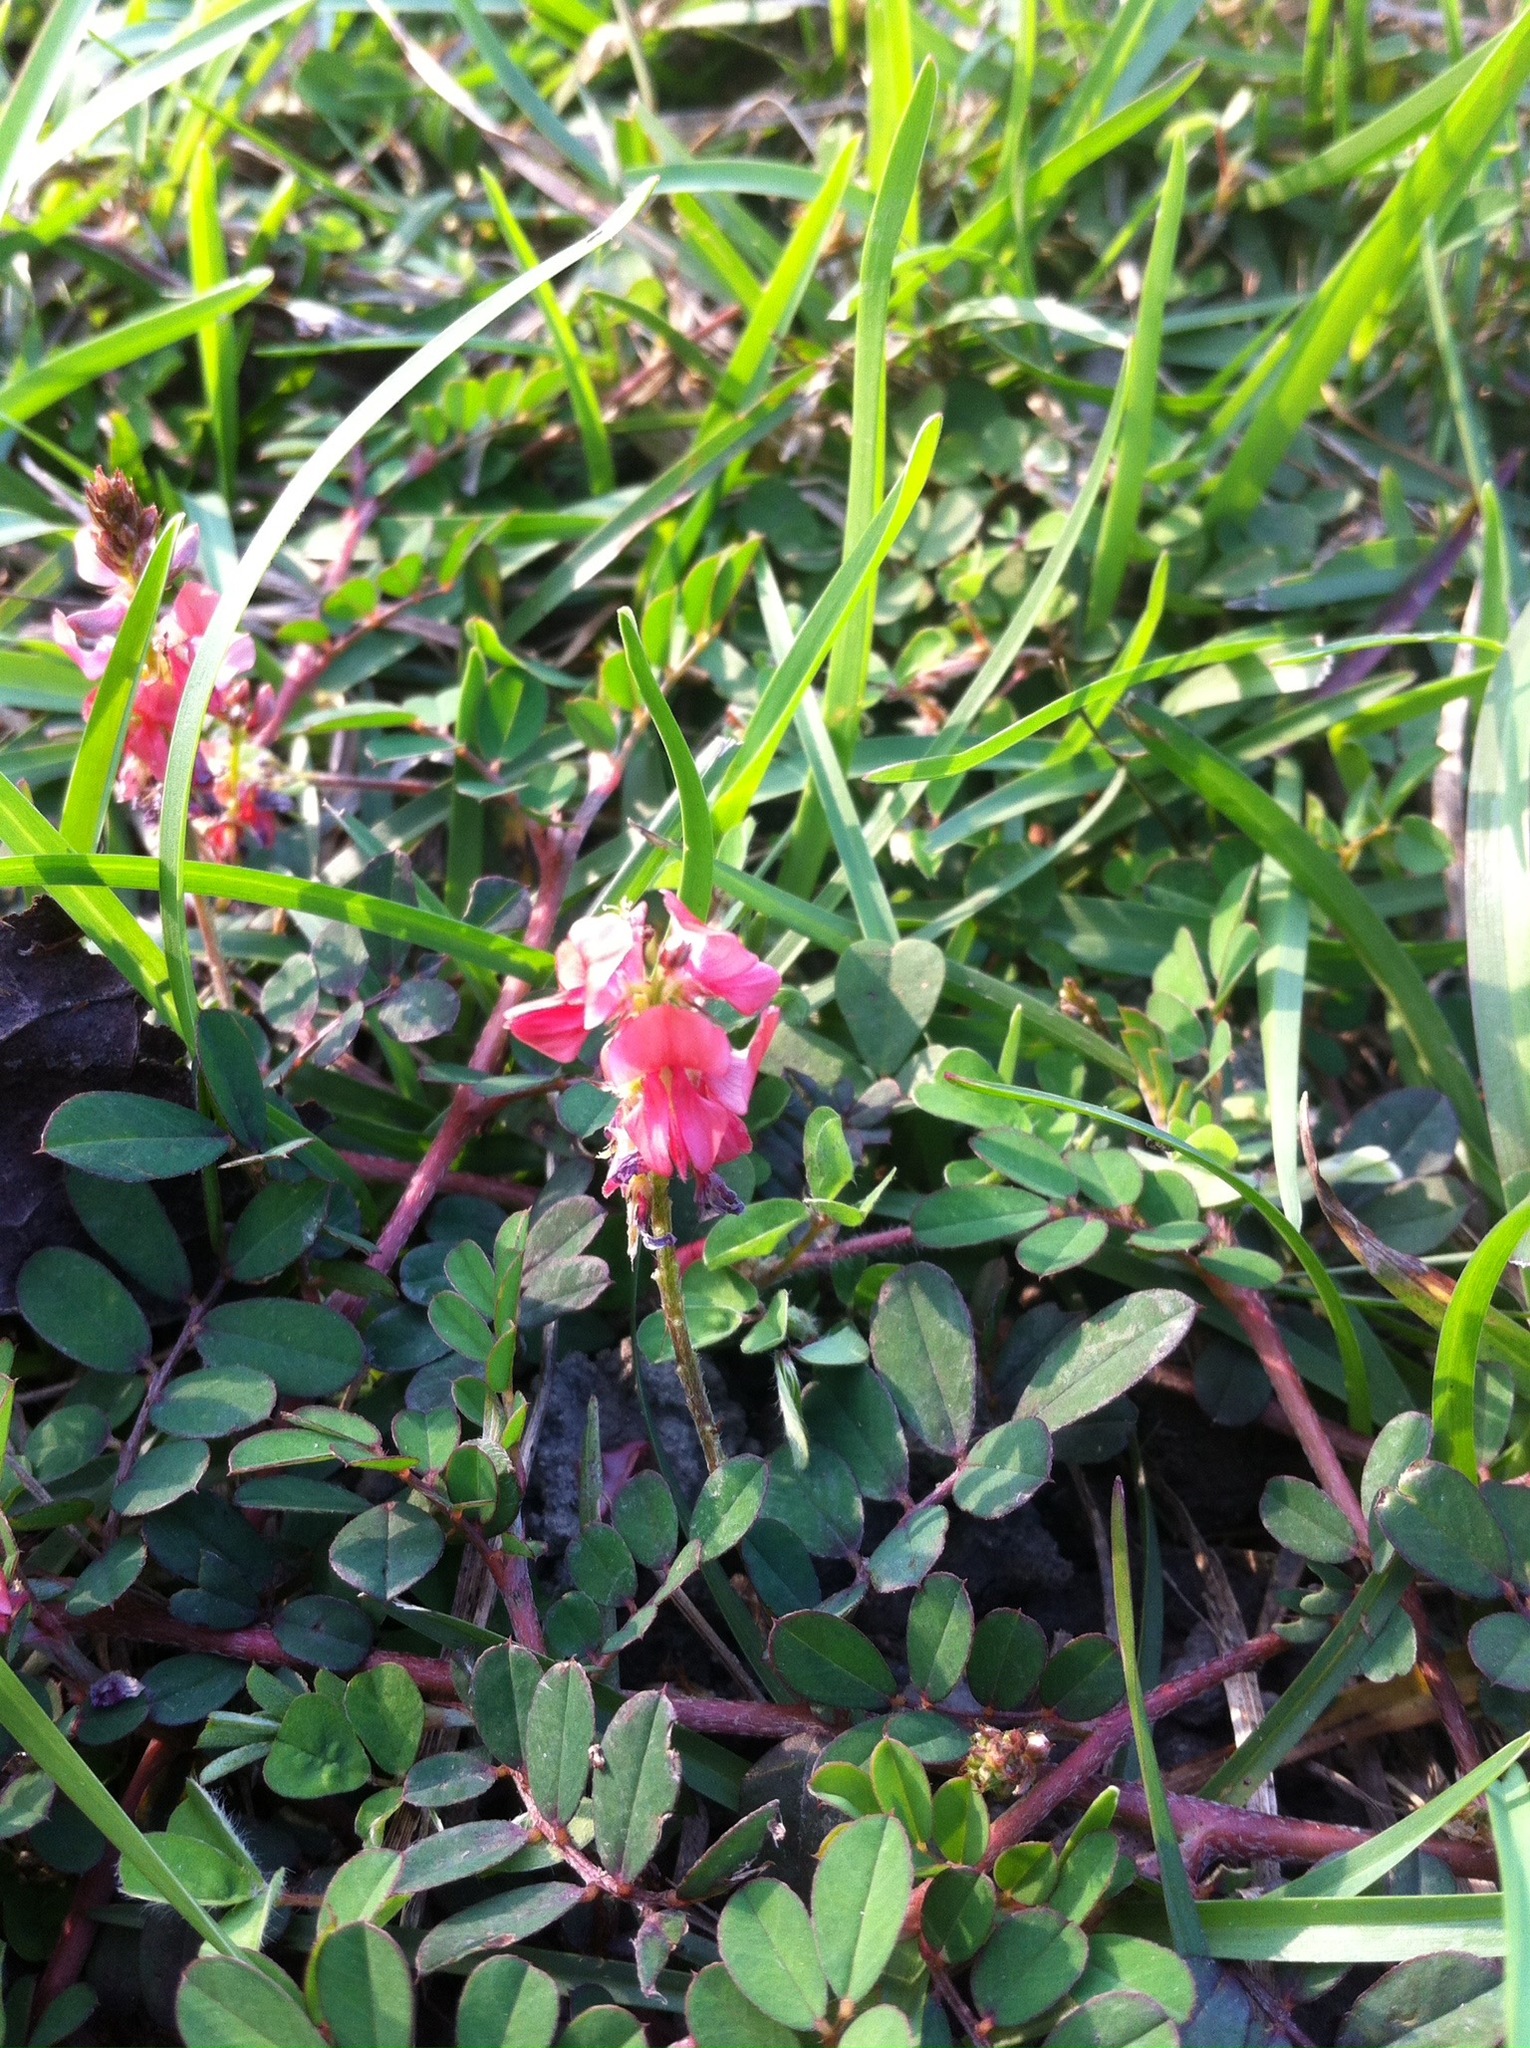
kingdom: Plantae
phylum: Tracheophyta
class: Magnoliopsida
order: Fabales
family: Fabaceae
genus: Indigofera
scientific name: Indigofera hendecaphylla
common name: Trailing indigo
